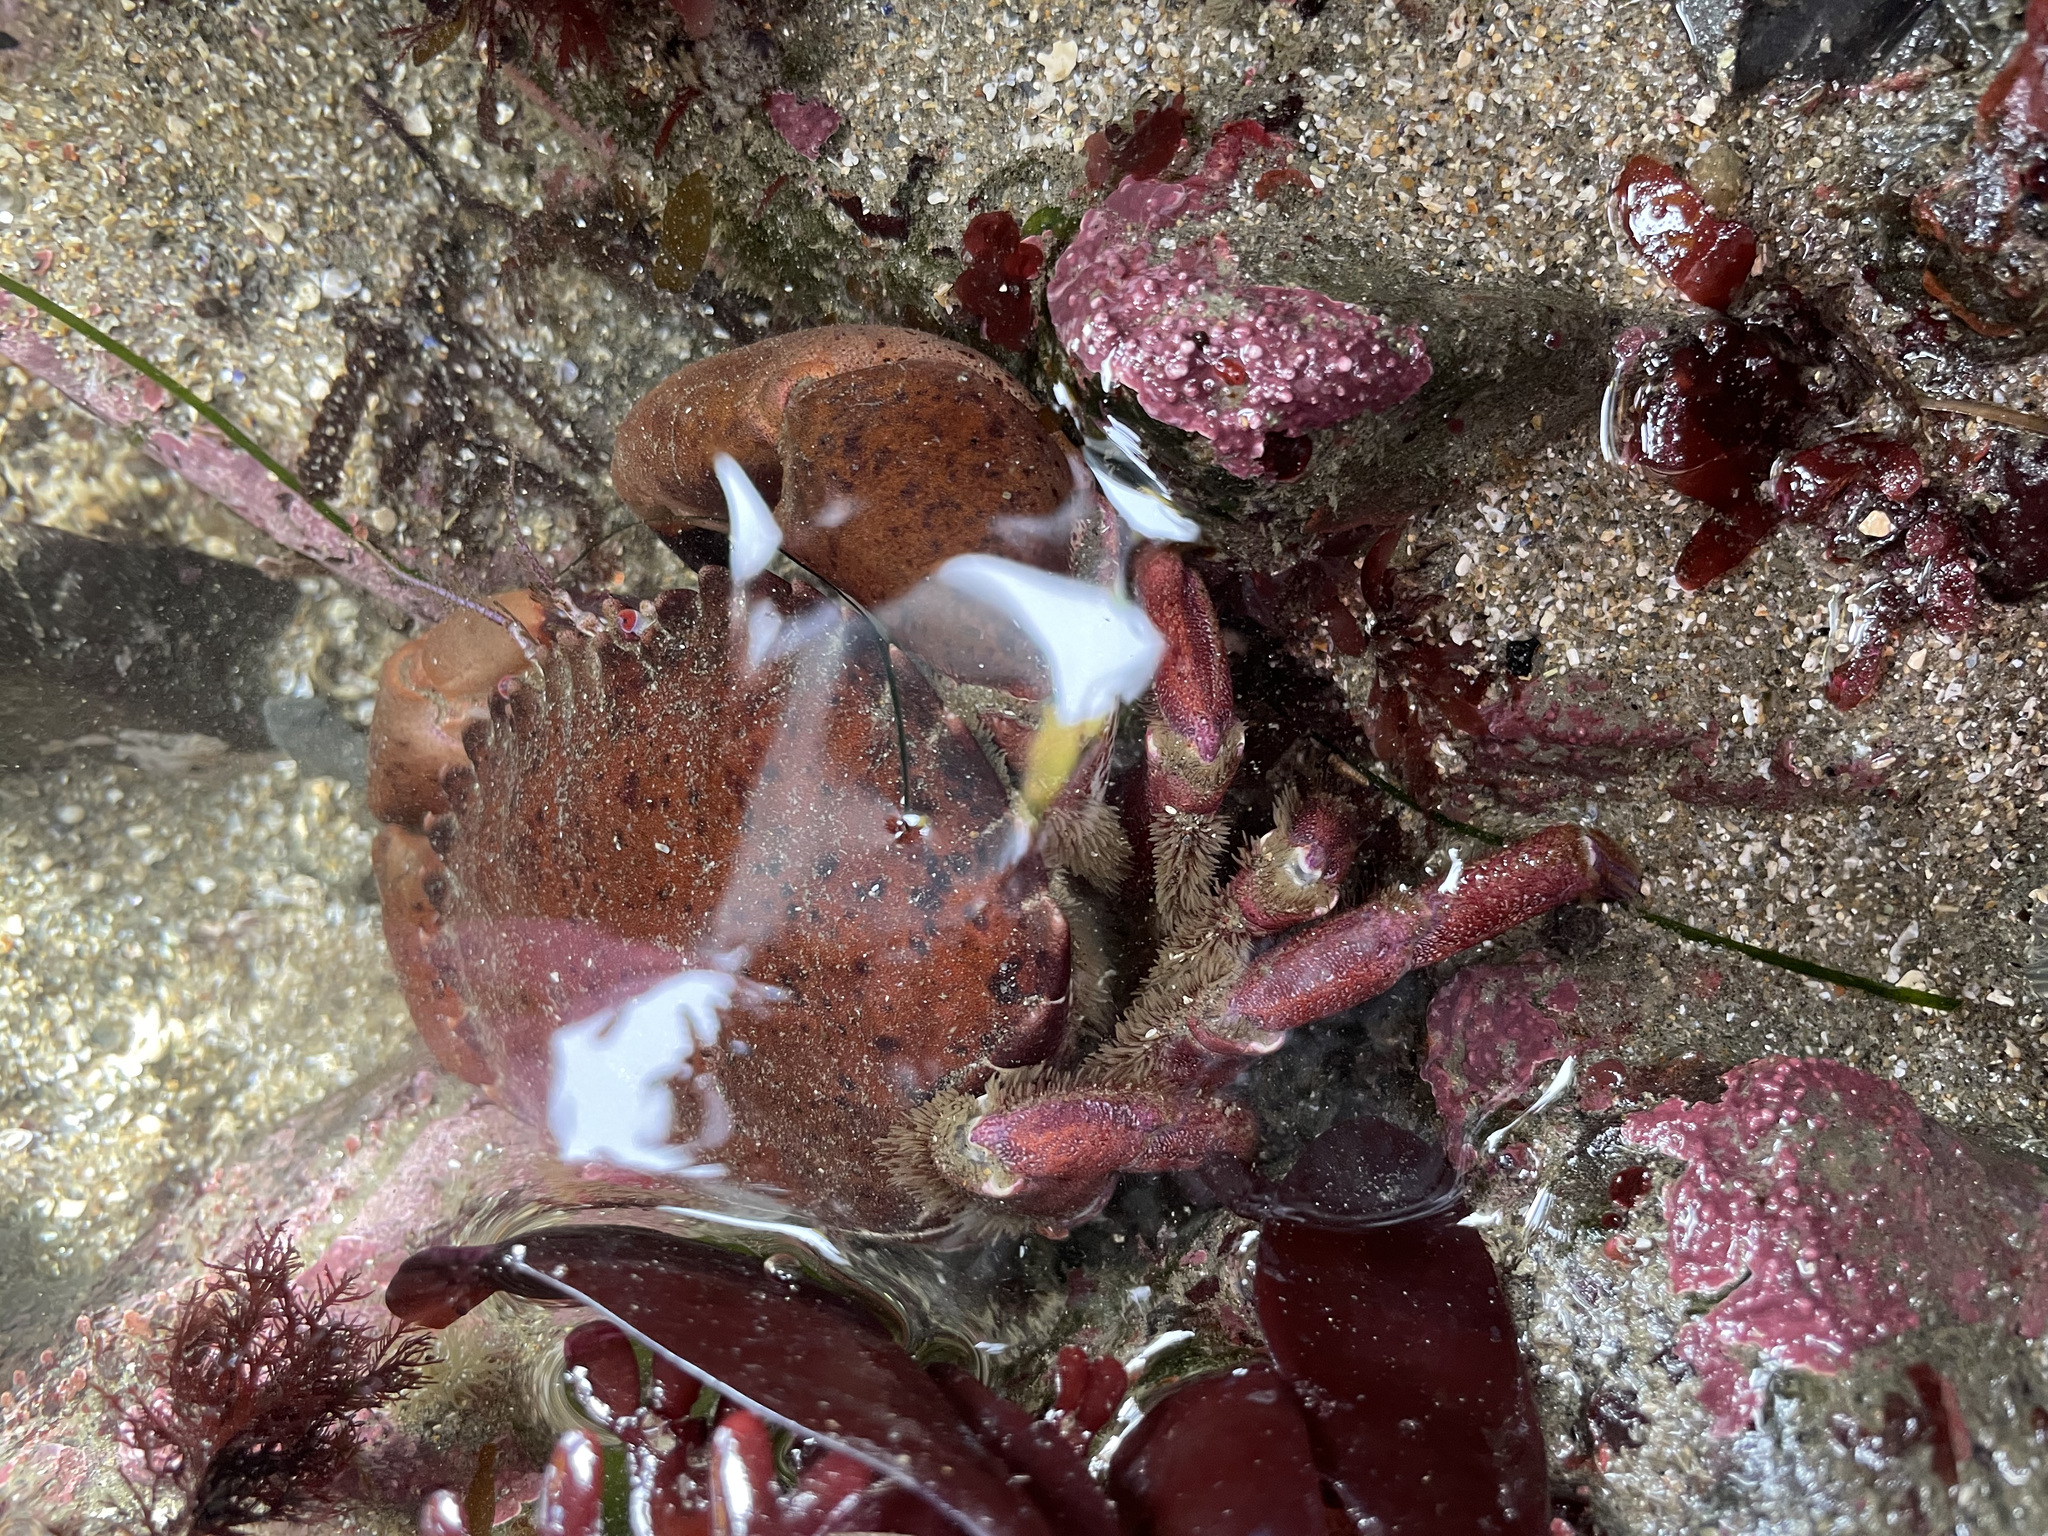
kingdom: Animalia
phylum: Arthropoda
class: Malacostraca
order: Decapoda
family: Cancridae
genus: Romaleon
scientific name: Romaleon antennarium
